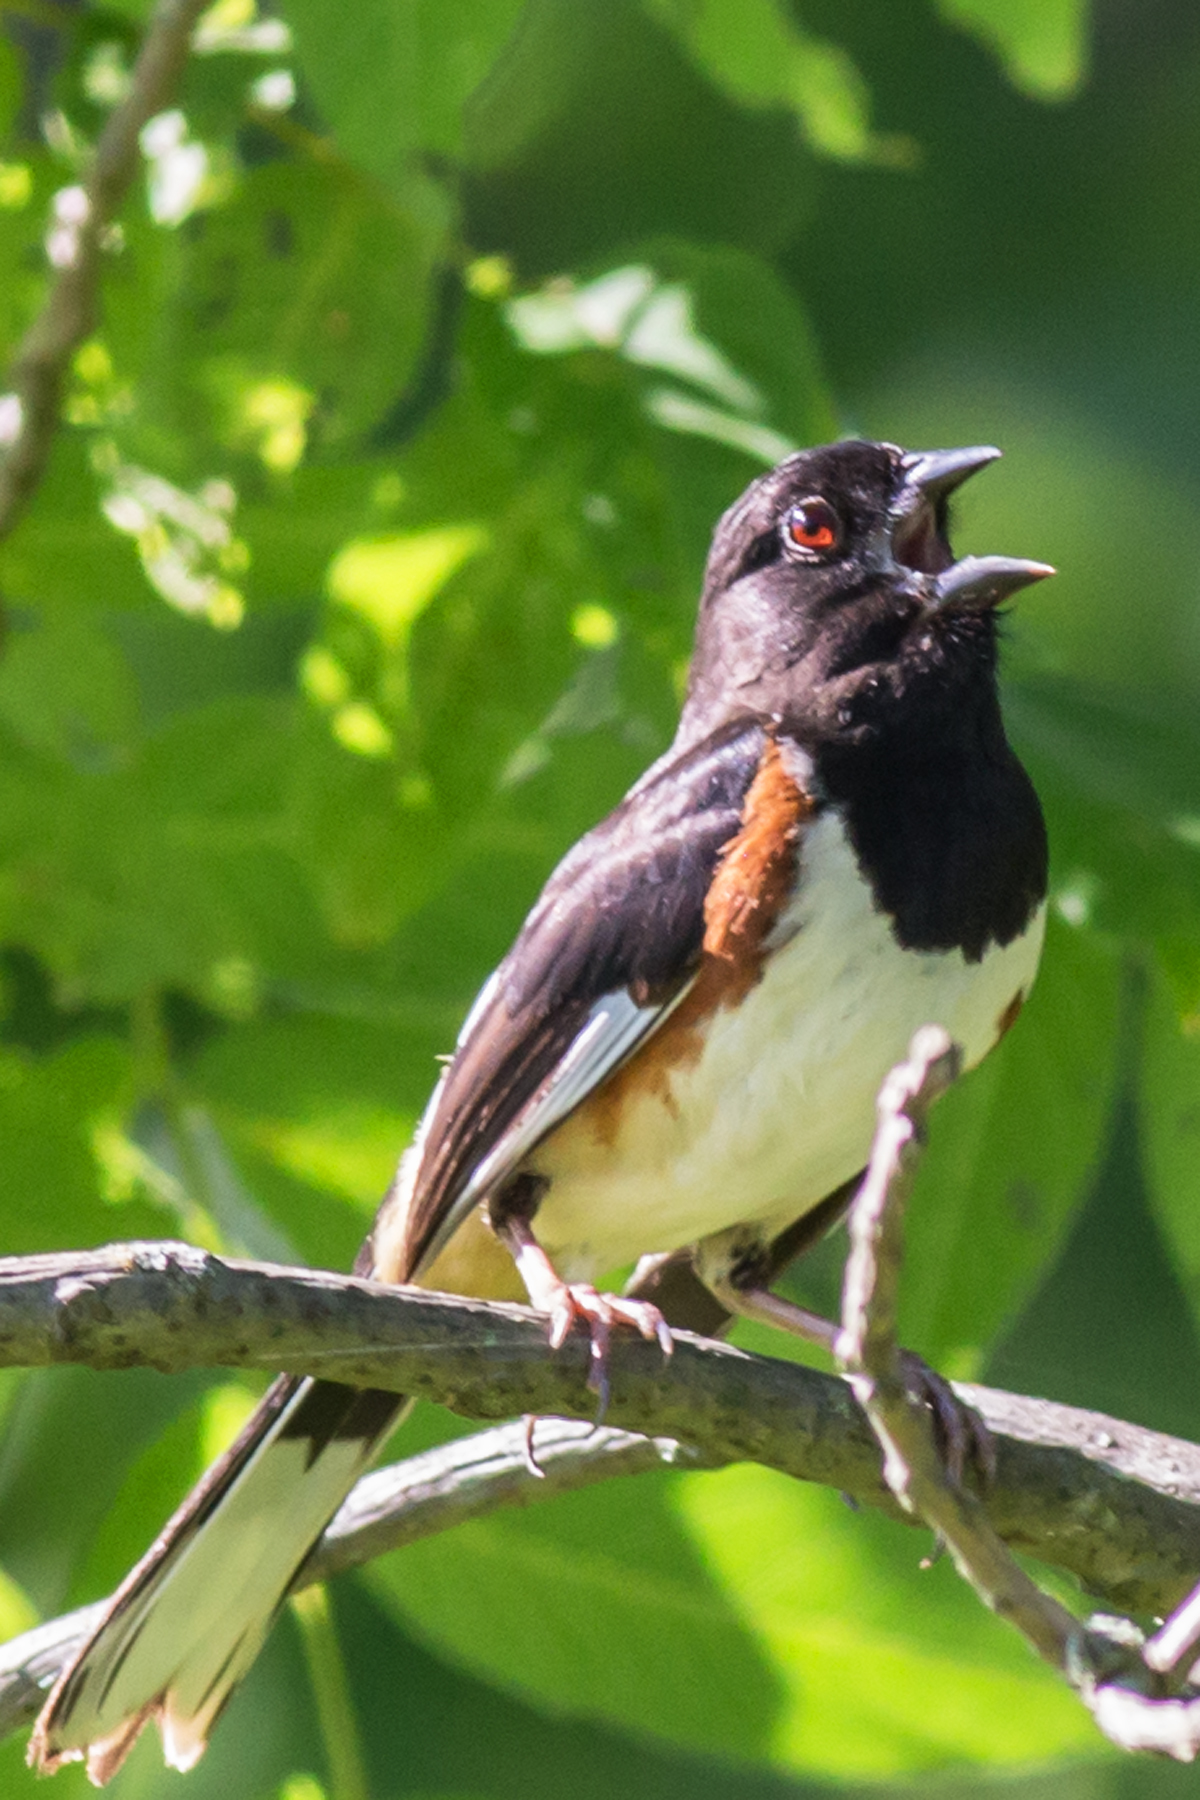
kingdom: Animalia
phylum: Chordata
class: Aves
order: Passeriformes
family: Passerellidae
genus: Pipilo
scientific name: Pipilo erythrophthalmus
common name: Eastern towhee
